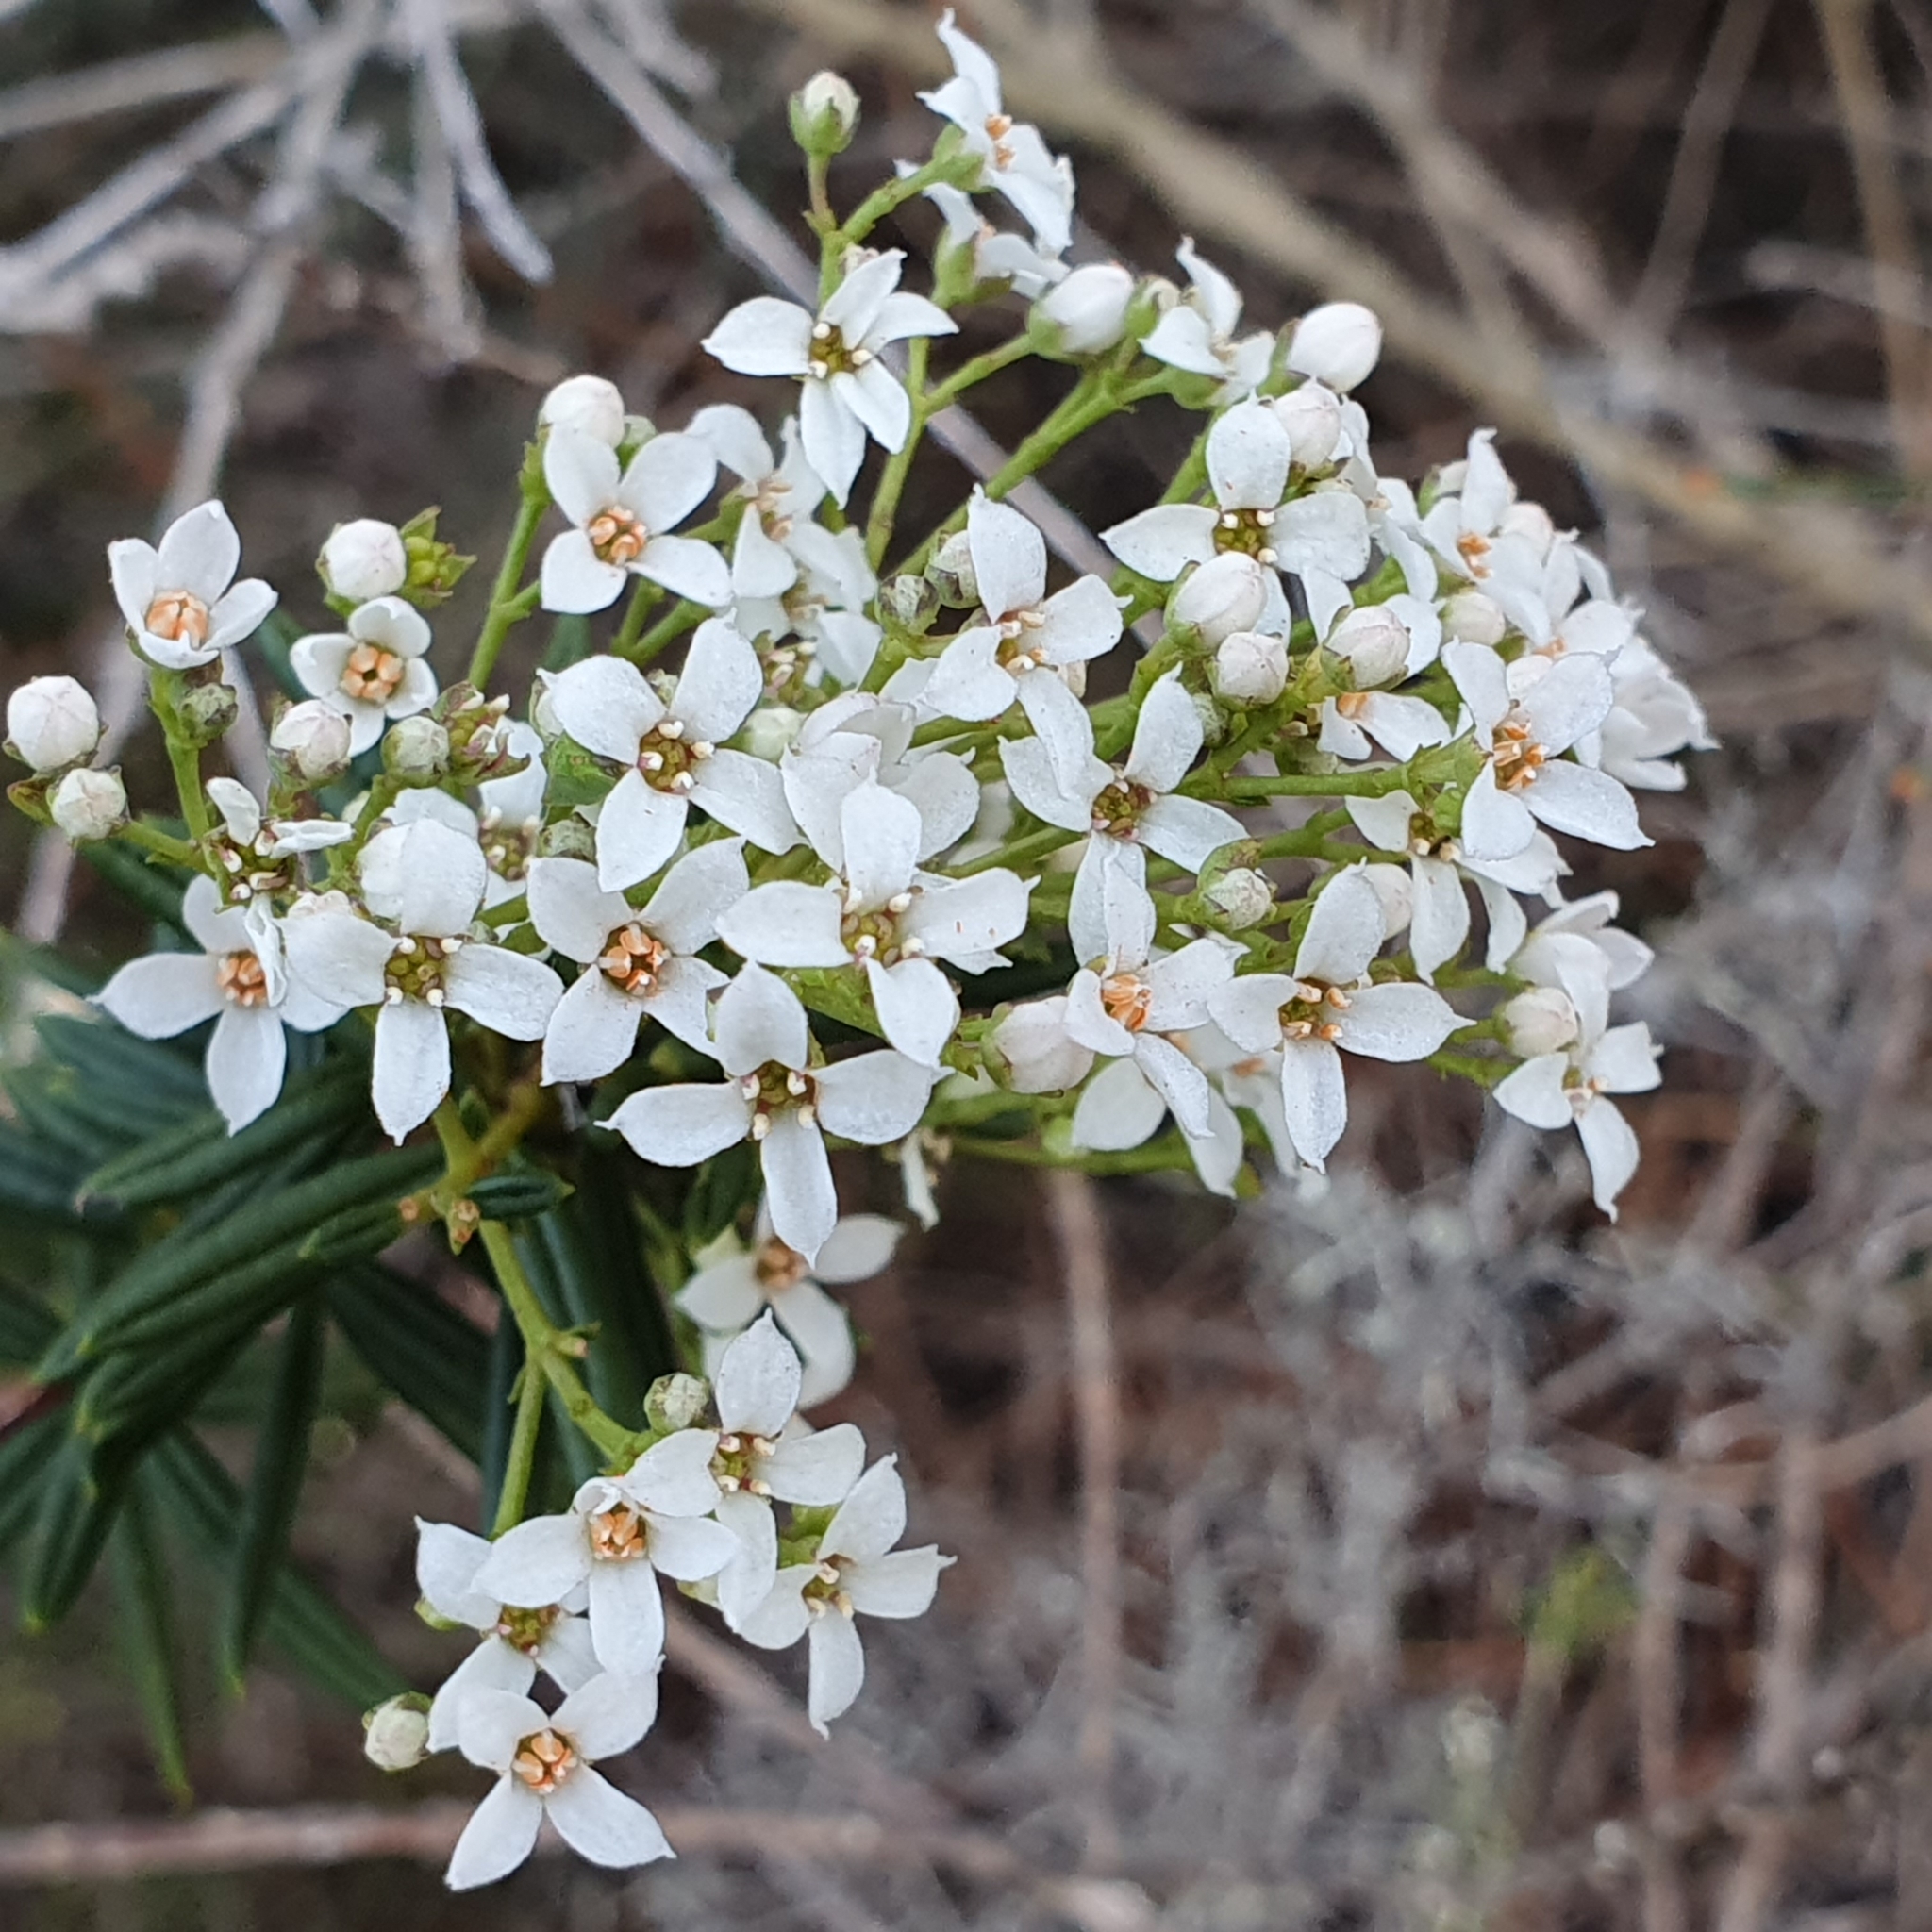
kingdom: Plantae
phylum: Tracheophyta
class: Magnoliopsida
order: Sapindales
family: Rutaceae
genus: Zieria
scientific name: Zieria laevigata
